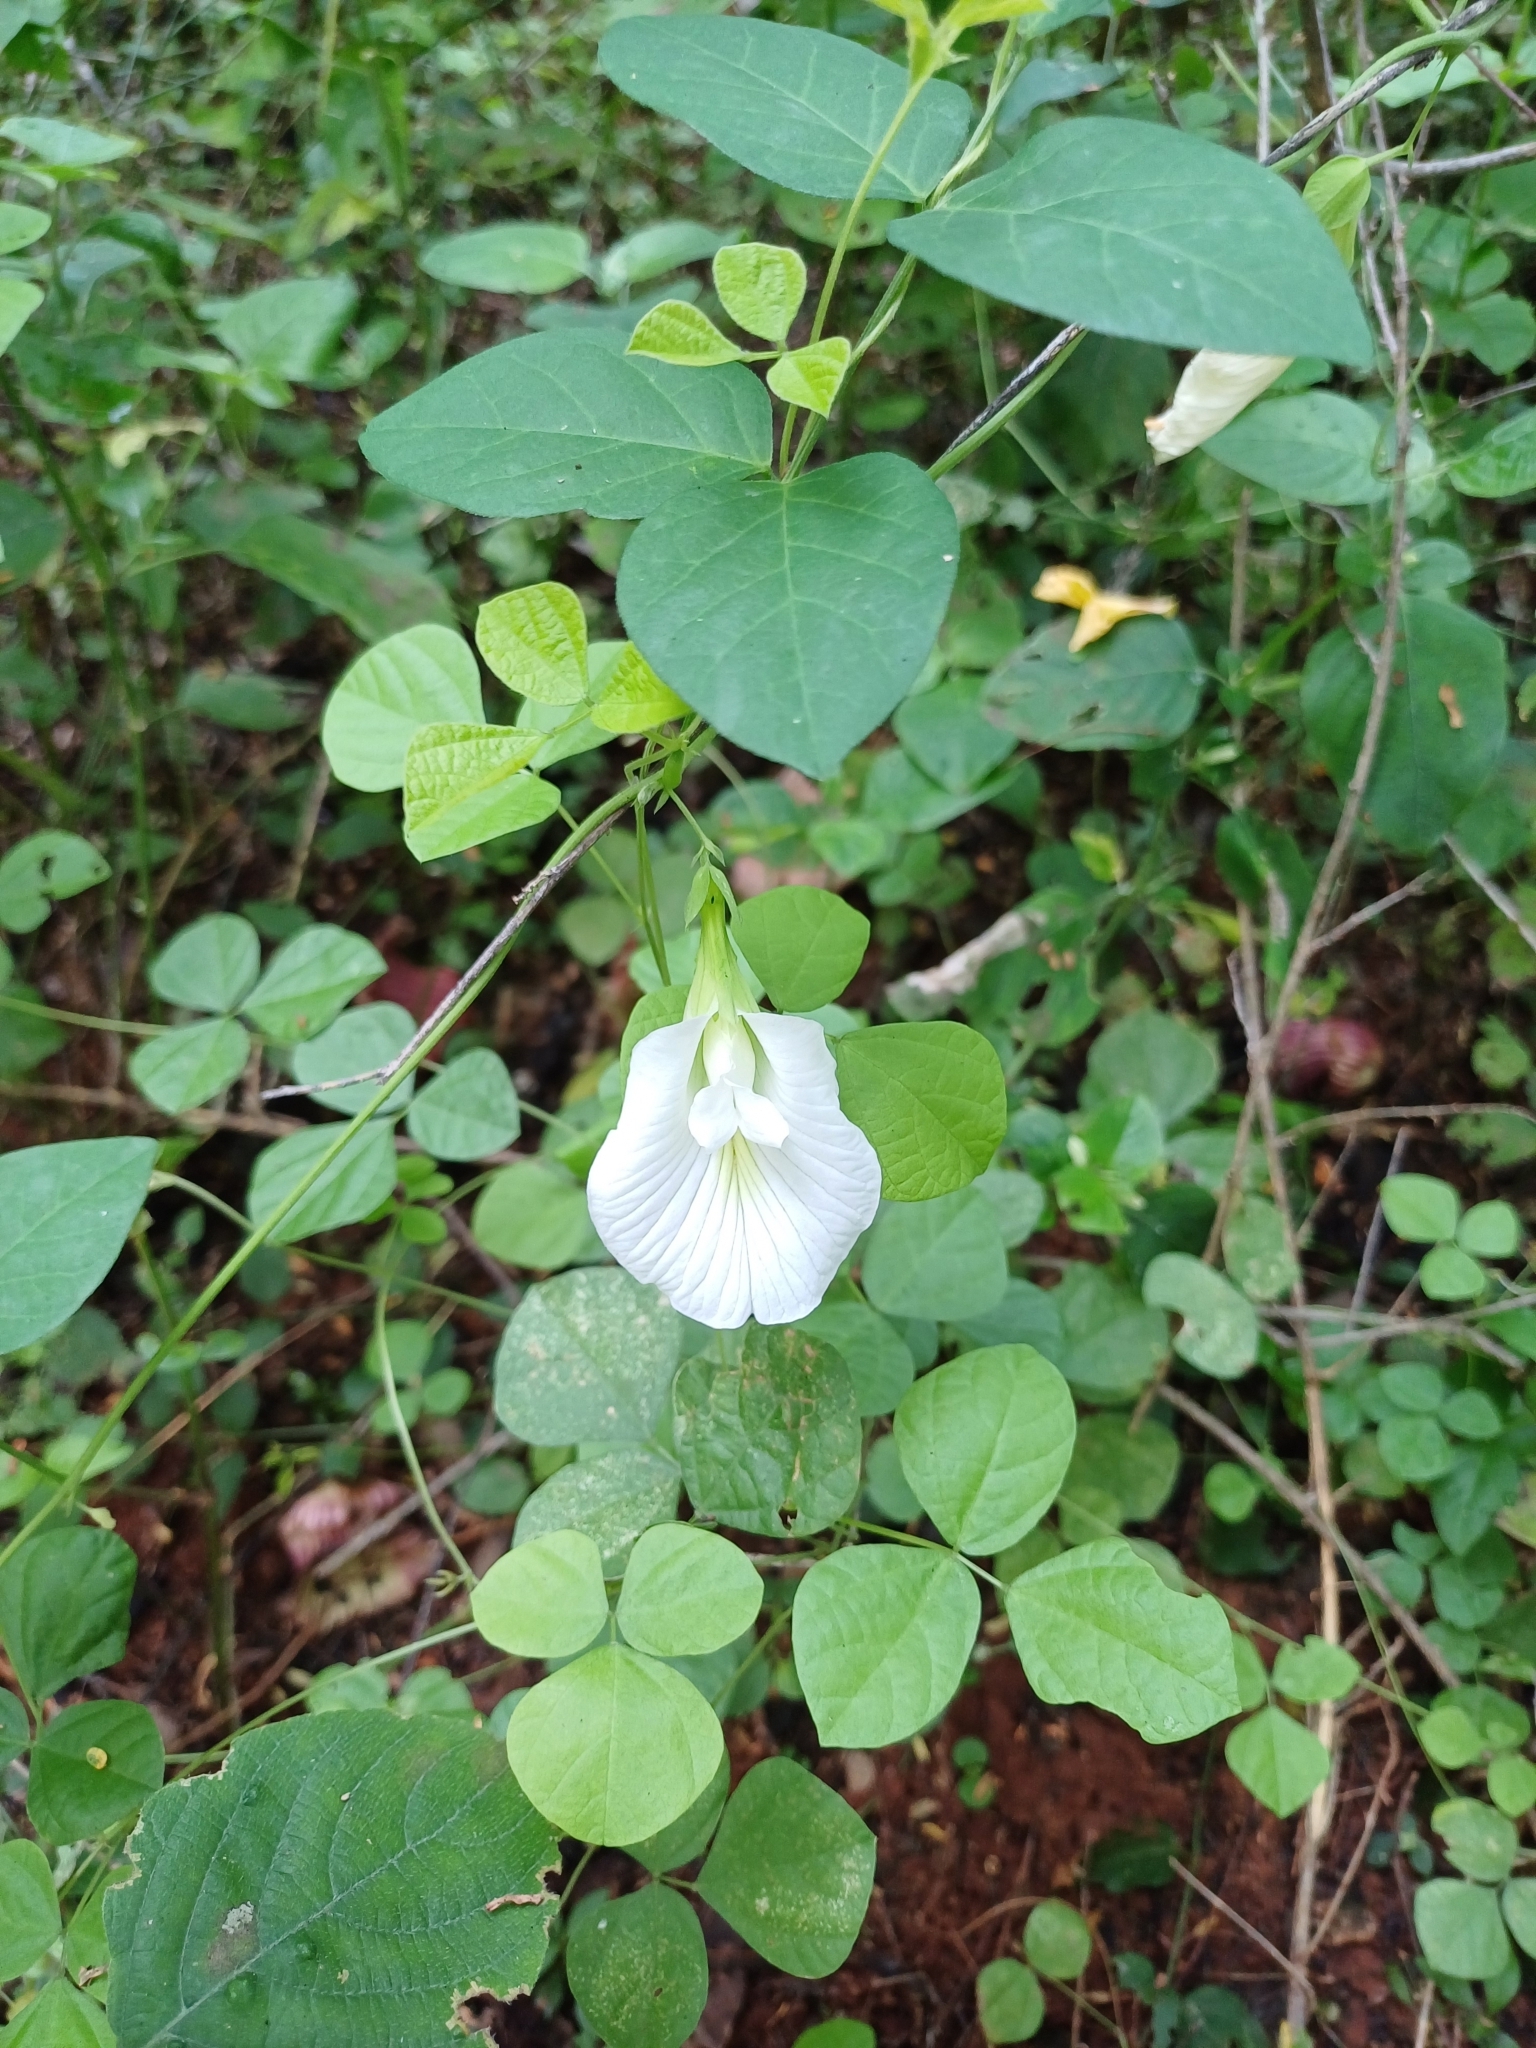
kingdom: Plantae
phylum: Tracheophyta
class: Magnoliopsida
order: Fabales
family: Fabaceae
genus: Clitoria
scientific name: Clitoria ternatea
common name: Asian pigeonwings
